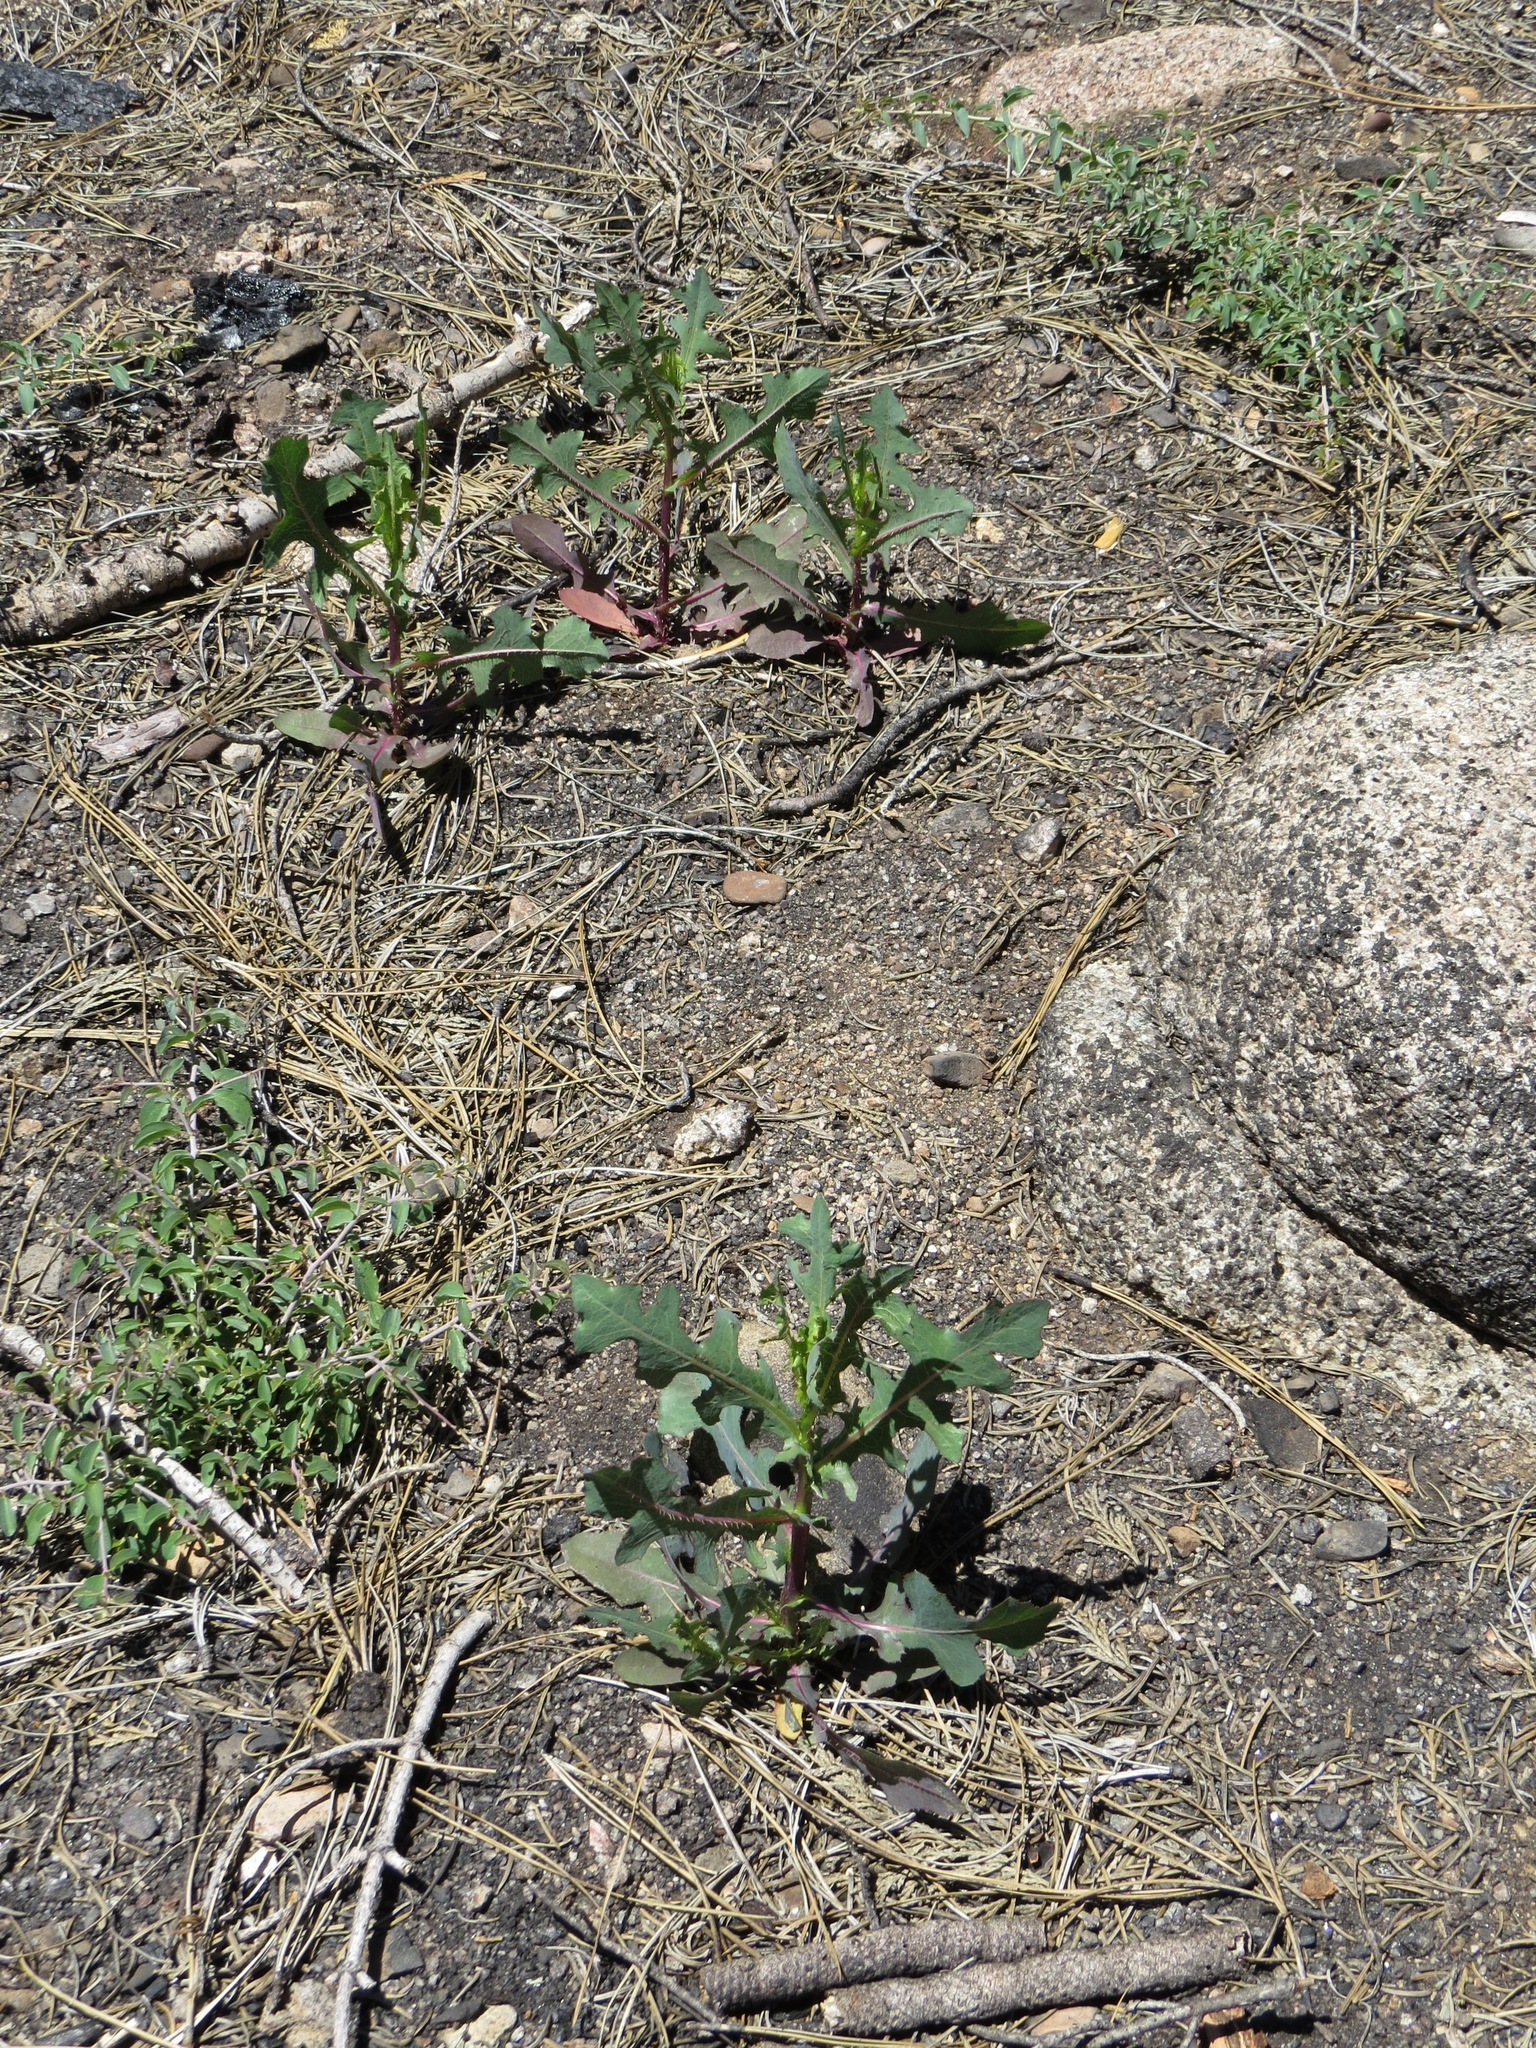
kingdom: Plantae
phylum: Tracheophyta
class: Magnoliopsida
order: Asterales
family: Asteraceae
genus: Lactuca
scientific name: Lactuca serriola
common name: Prickly lettuce
